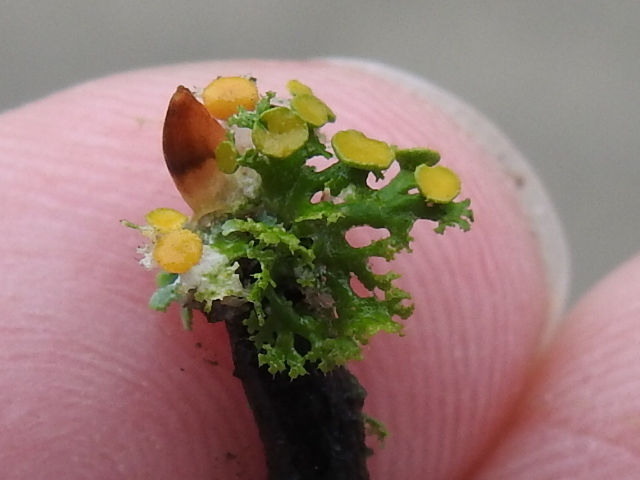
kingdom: Fungi
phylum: Ascomycota
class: Lecanoromycetes
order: Teloschistales
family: Teloschistaceae
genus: Niorma
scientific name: Niorma chrysophthalma
